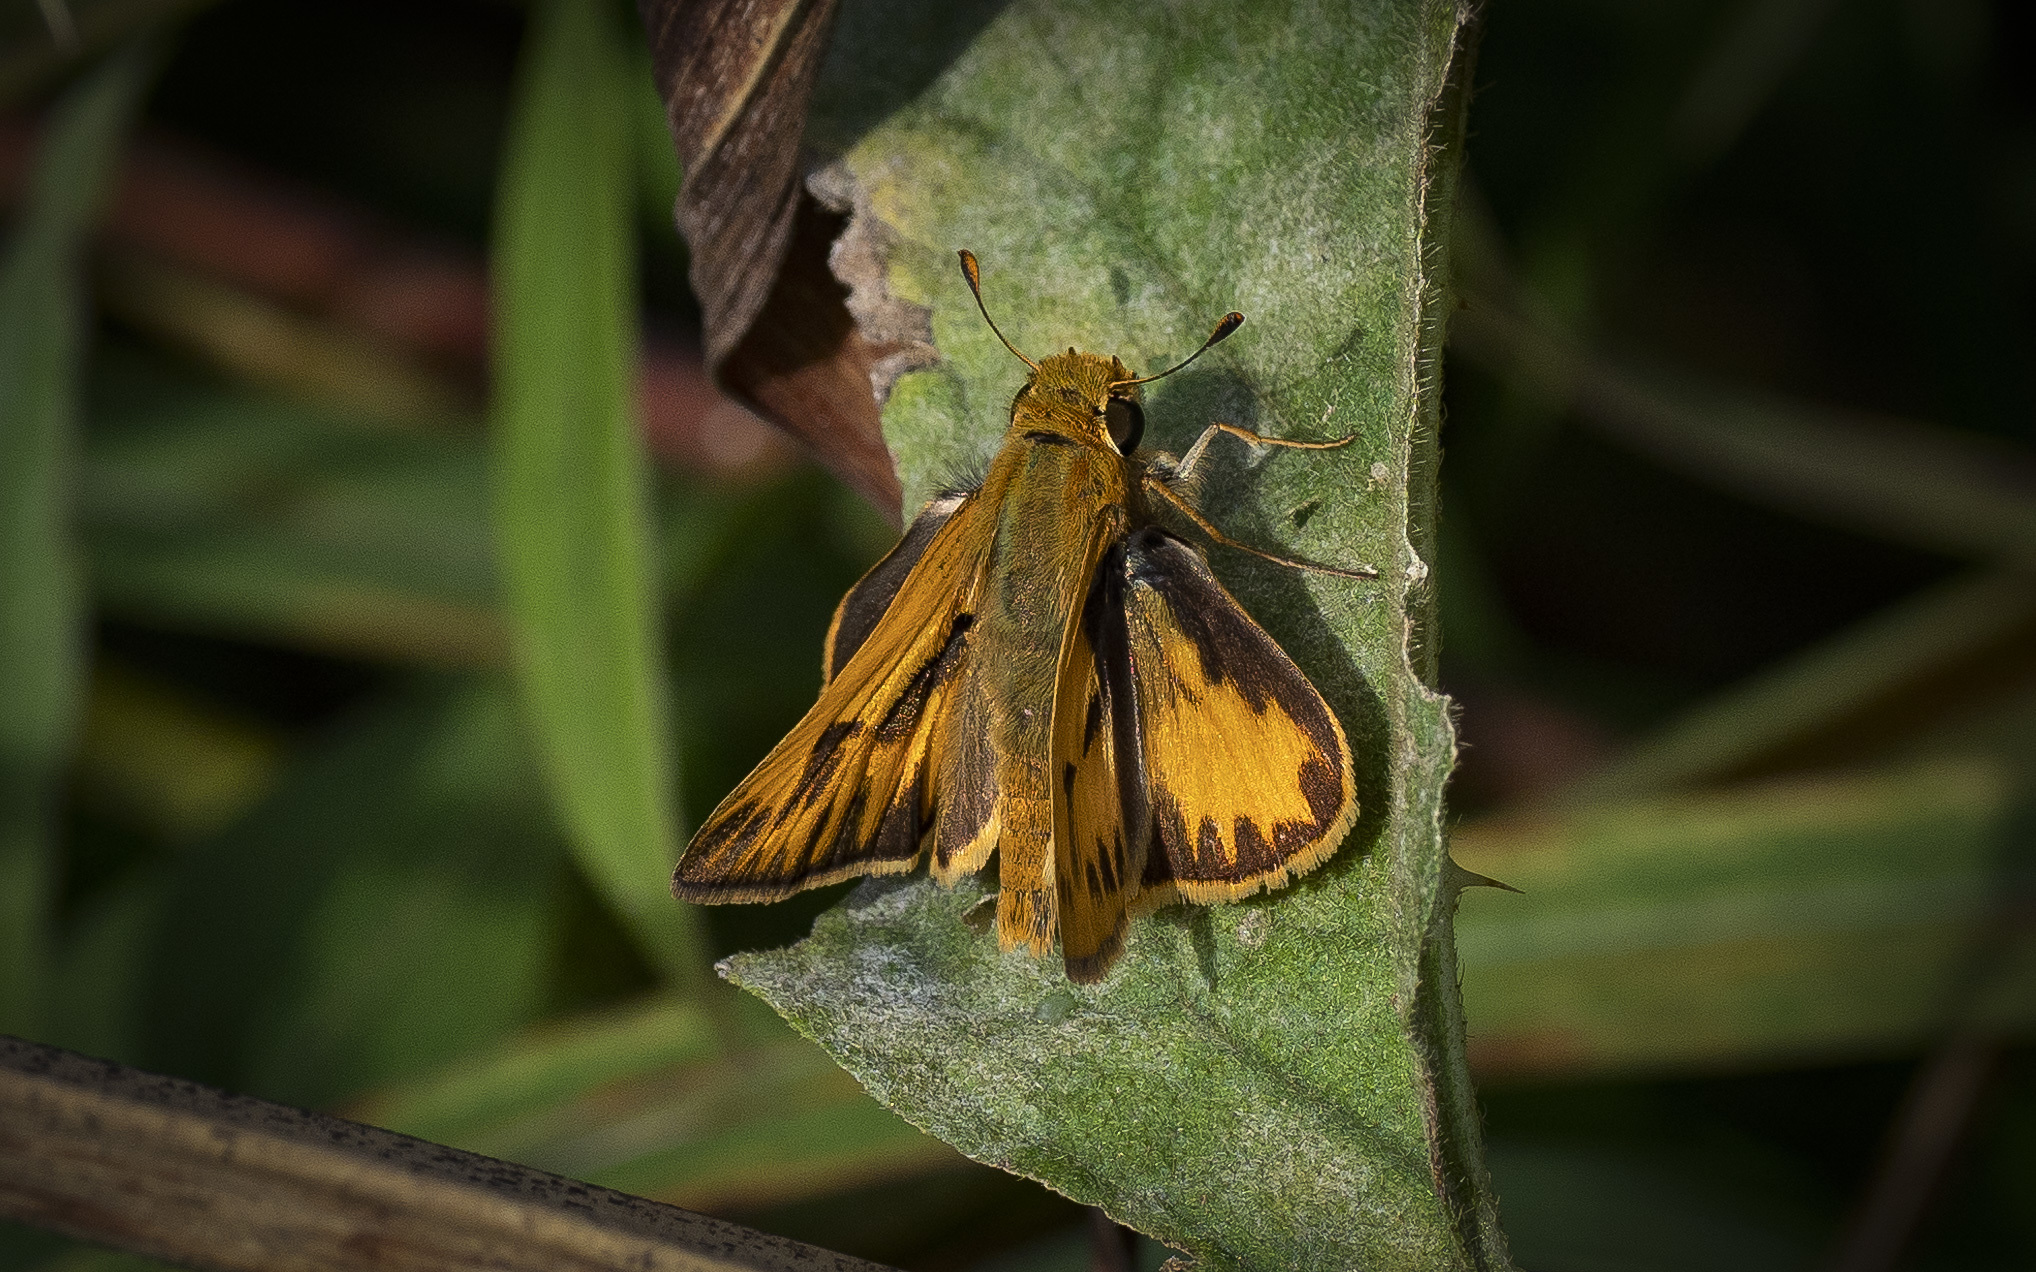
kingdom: Animalia
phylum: Arthropoda
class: Insecta
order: Lepidoptera
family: Hesperiidae
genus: Hylephila
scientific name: Hylephila phyleus
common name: Fiery skipper
